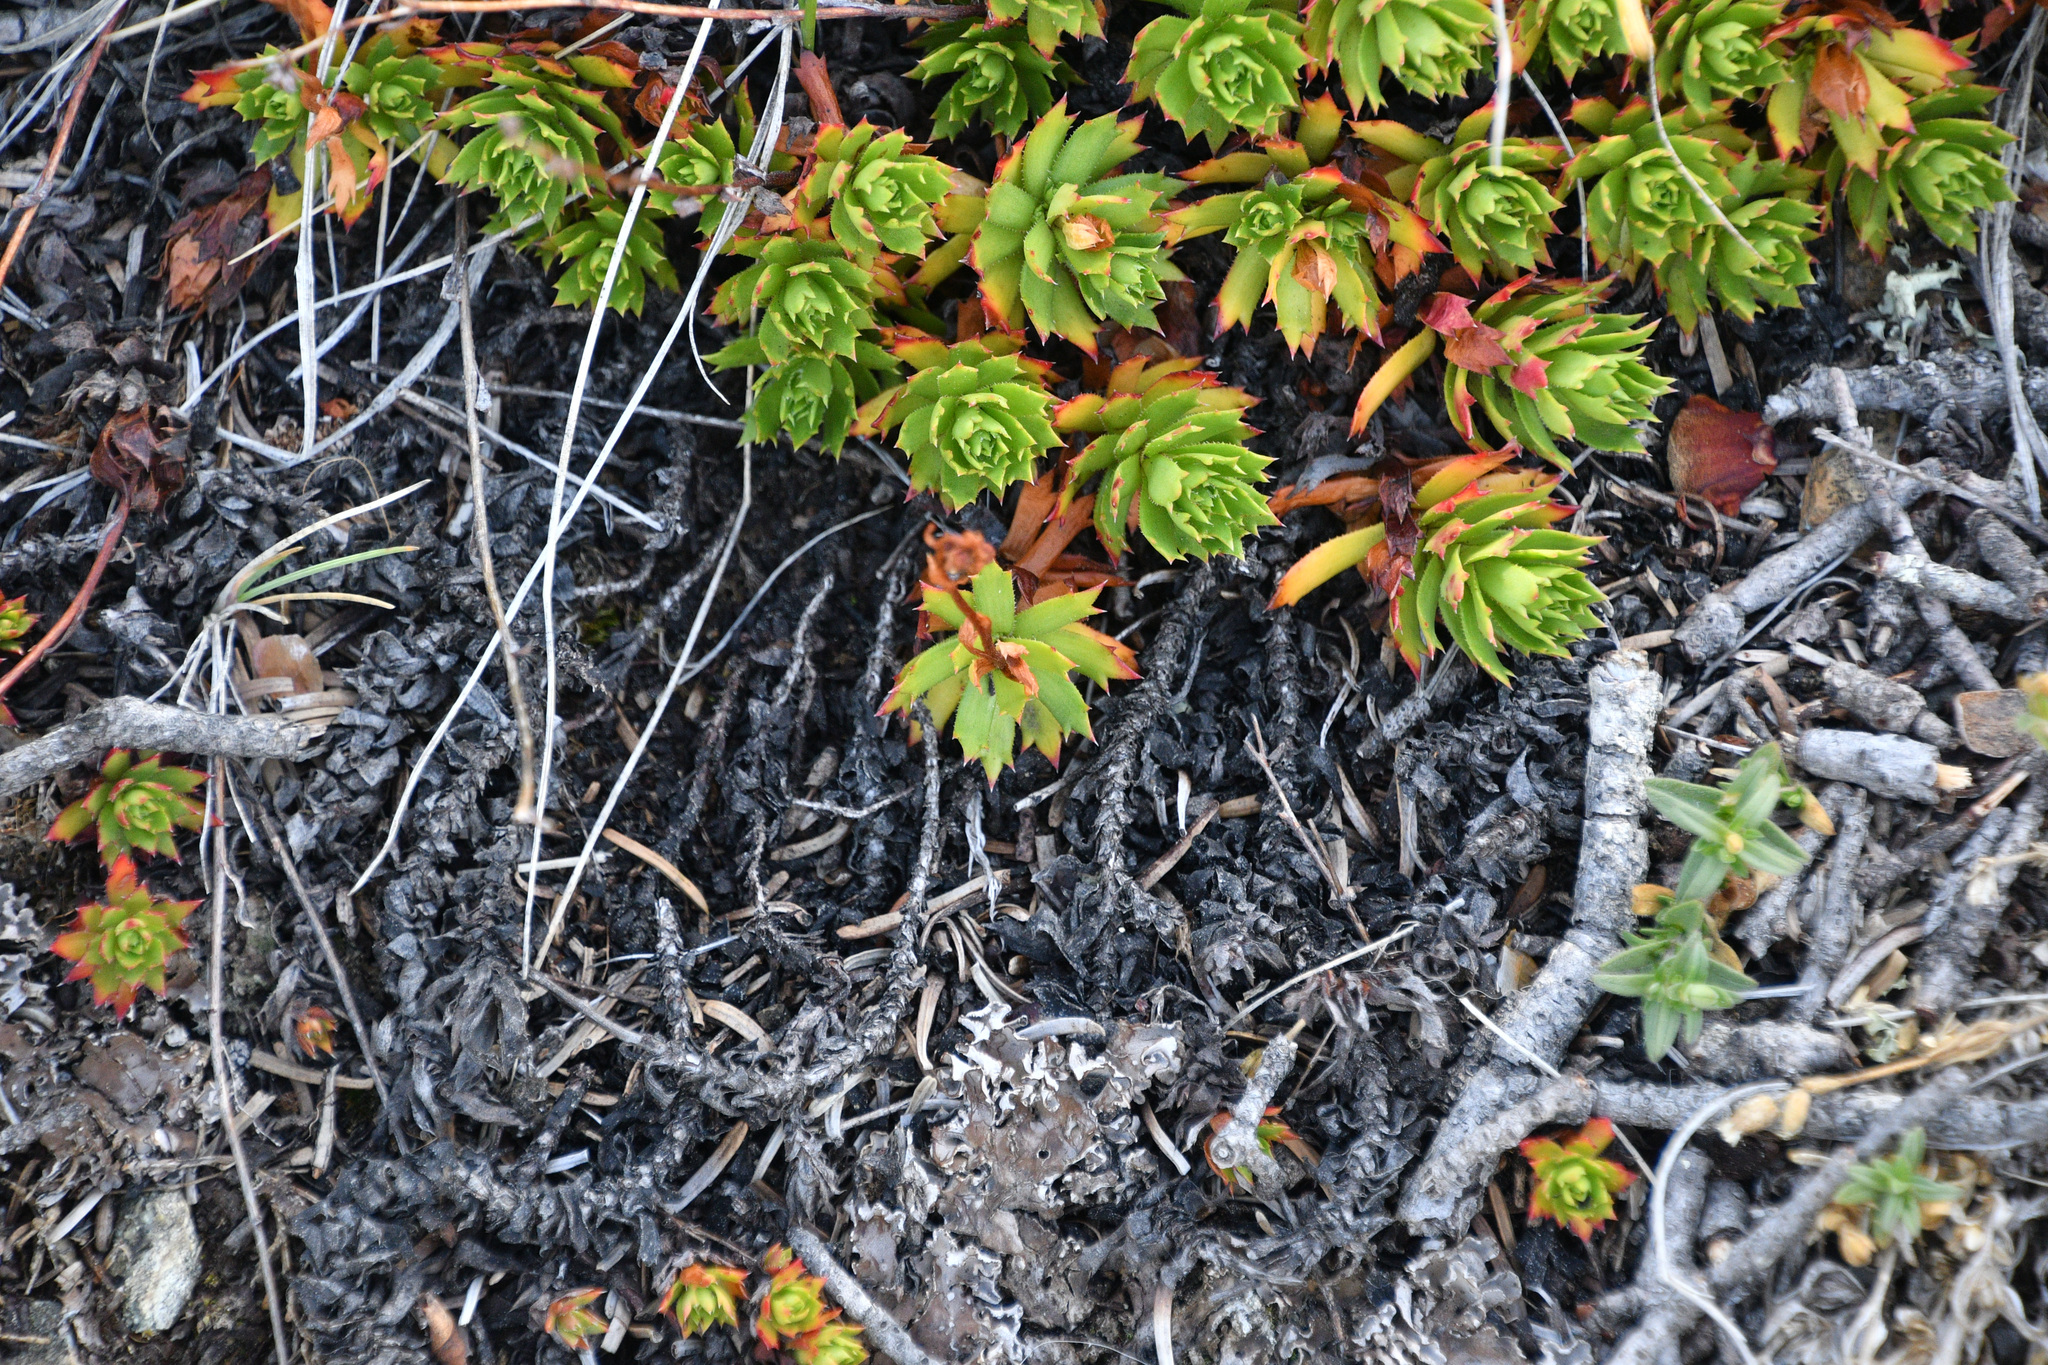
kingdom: Plantae
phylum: Tracheophyta
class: Magnoliopsida
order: Saxifragales
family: Saxifragaceae
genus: Saxifraga
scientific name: Saxifraga tricuspidata
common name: Prickly saxifrage
